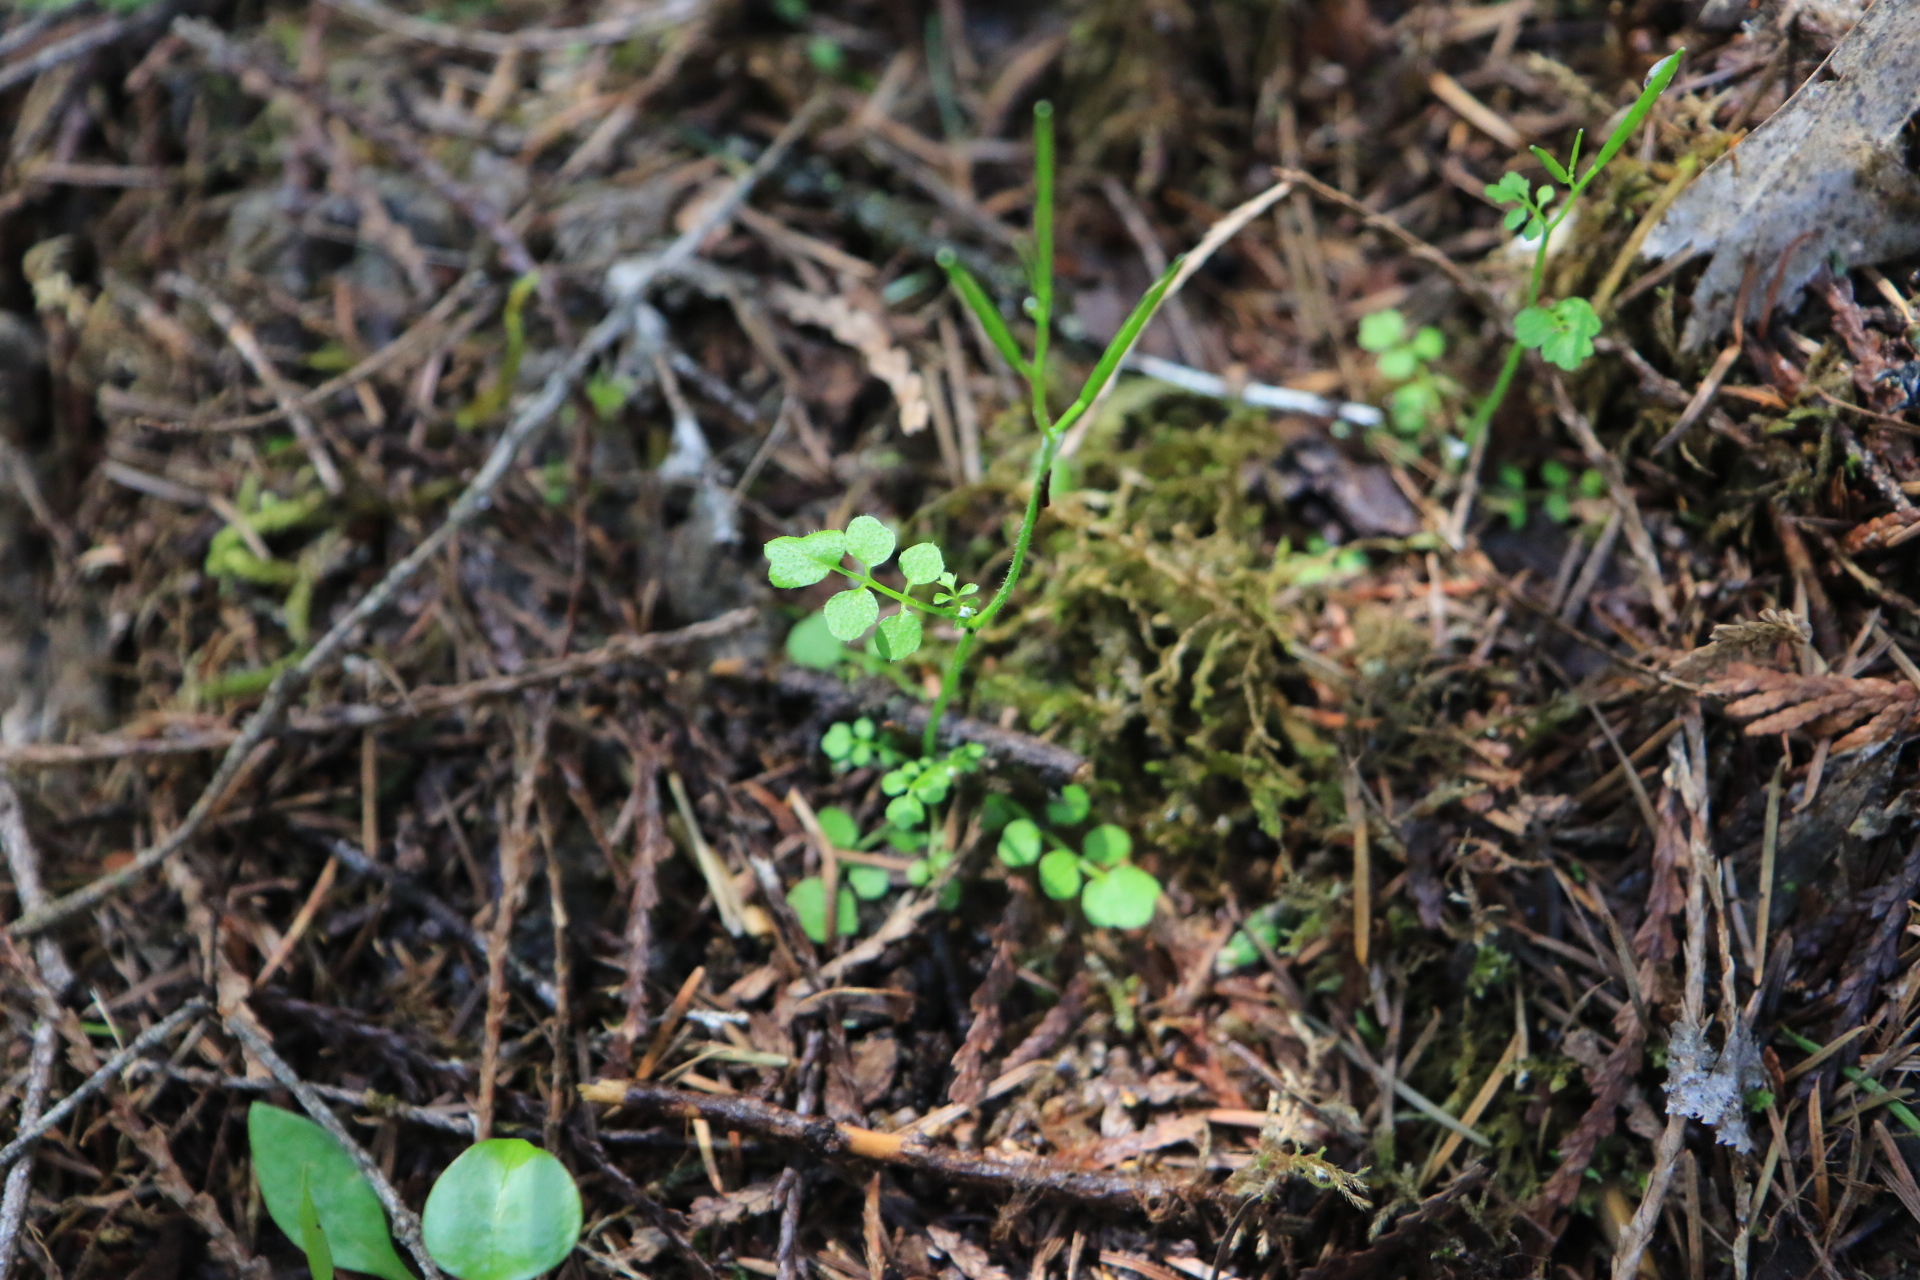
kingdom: Plantae
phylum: Tracheophyta
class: Magnoliopsida
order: Brassicales
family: Brassicaceae
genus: Cardamine
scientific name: Cardamine oligosperma
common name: Idaho bittercress
